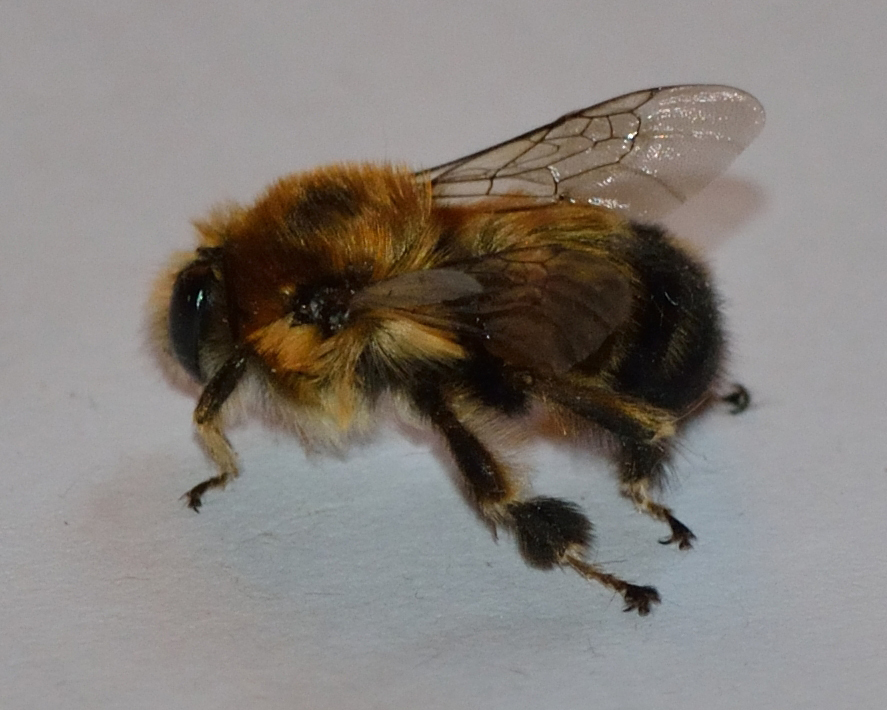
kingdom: Animalia
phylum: Arthropoda
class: Insecta
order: Hymenoptera
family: Apidae
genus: Anthophora
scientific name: Anthophora aestivalis
